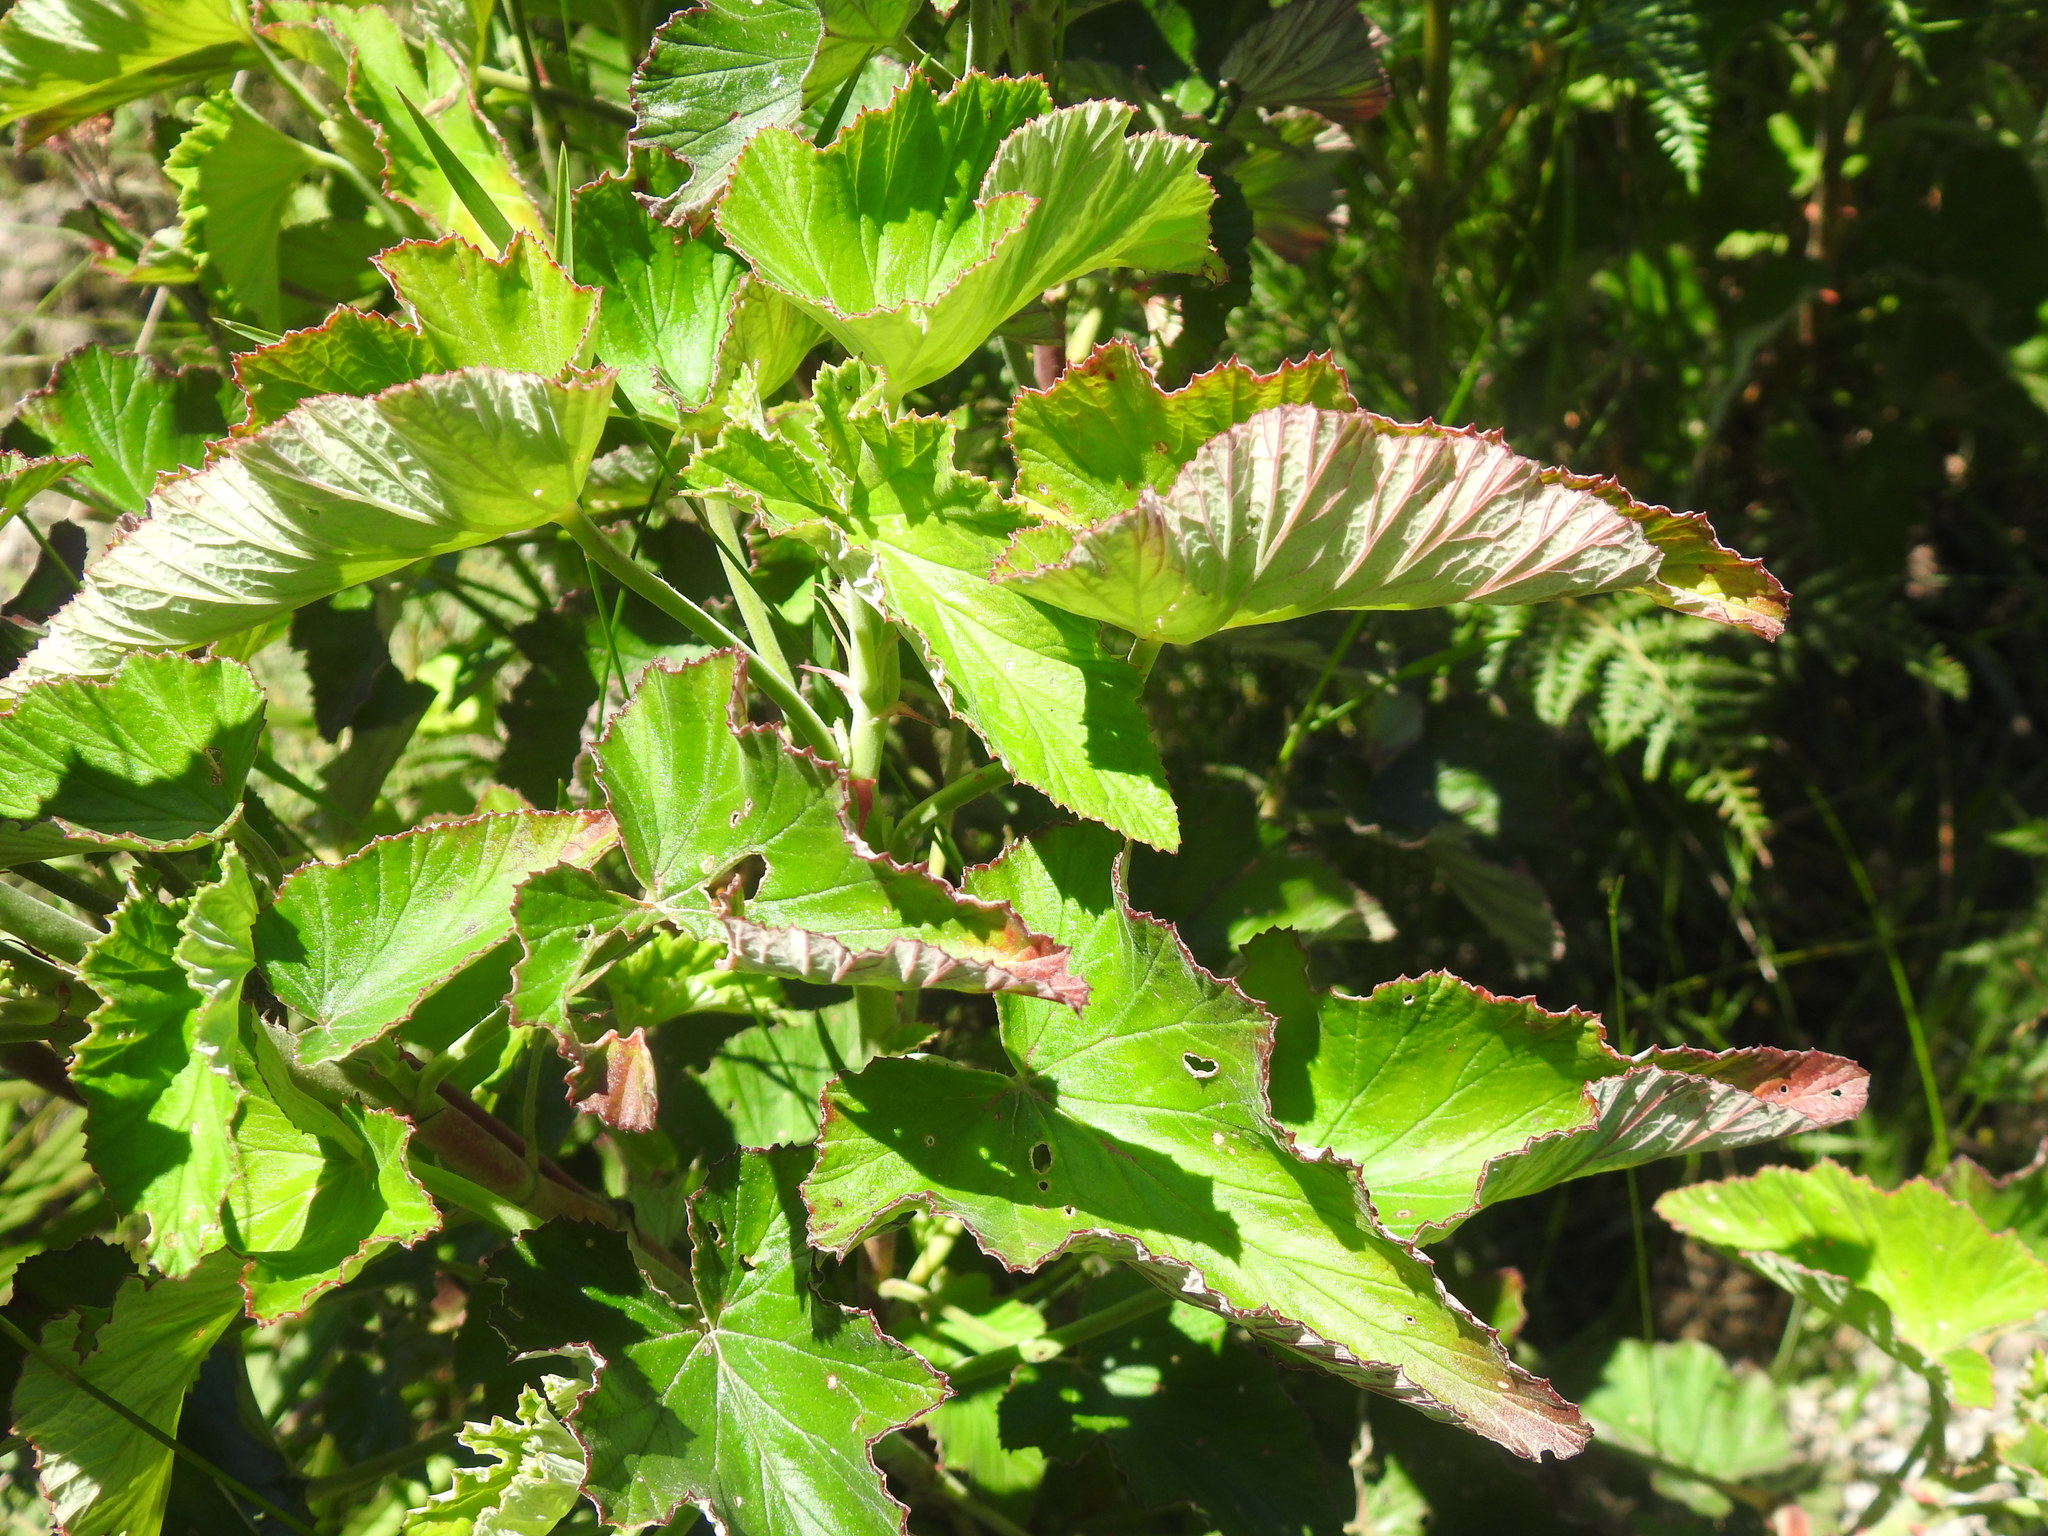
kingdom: Plantae
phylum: Tracheophyta
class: Magnoliopsida
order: Geraniales
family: Geraniaceae
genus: Pelargonium
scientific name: Pelargonium cordifolium
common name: Heart-leaf pelargonium
